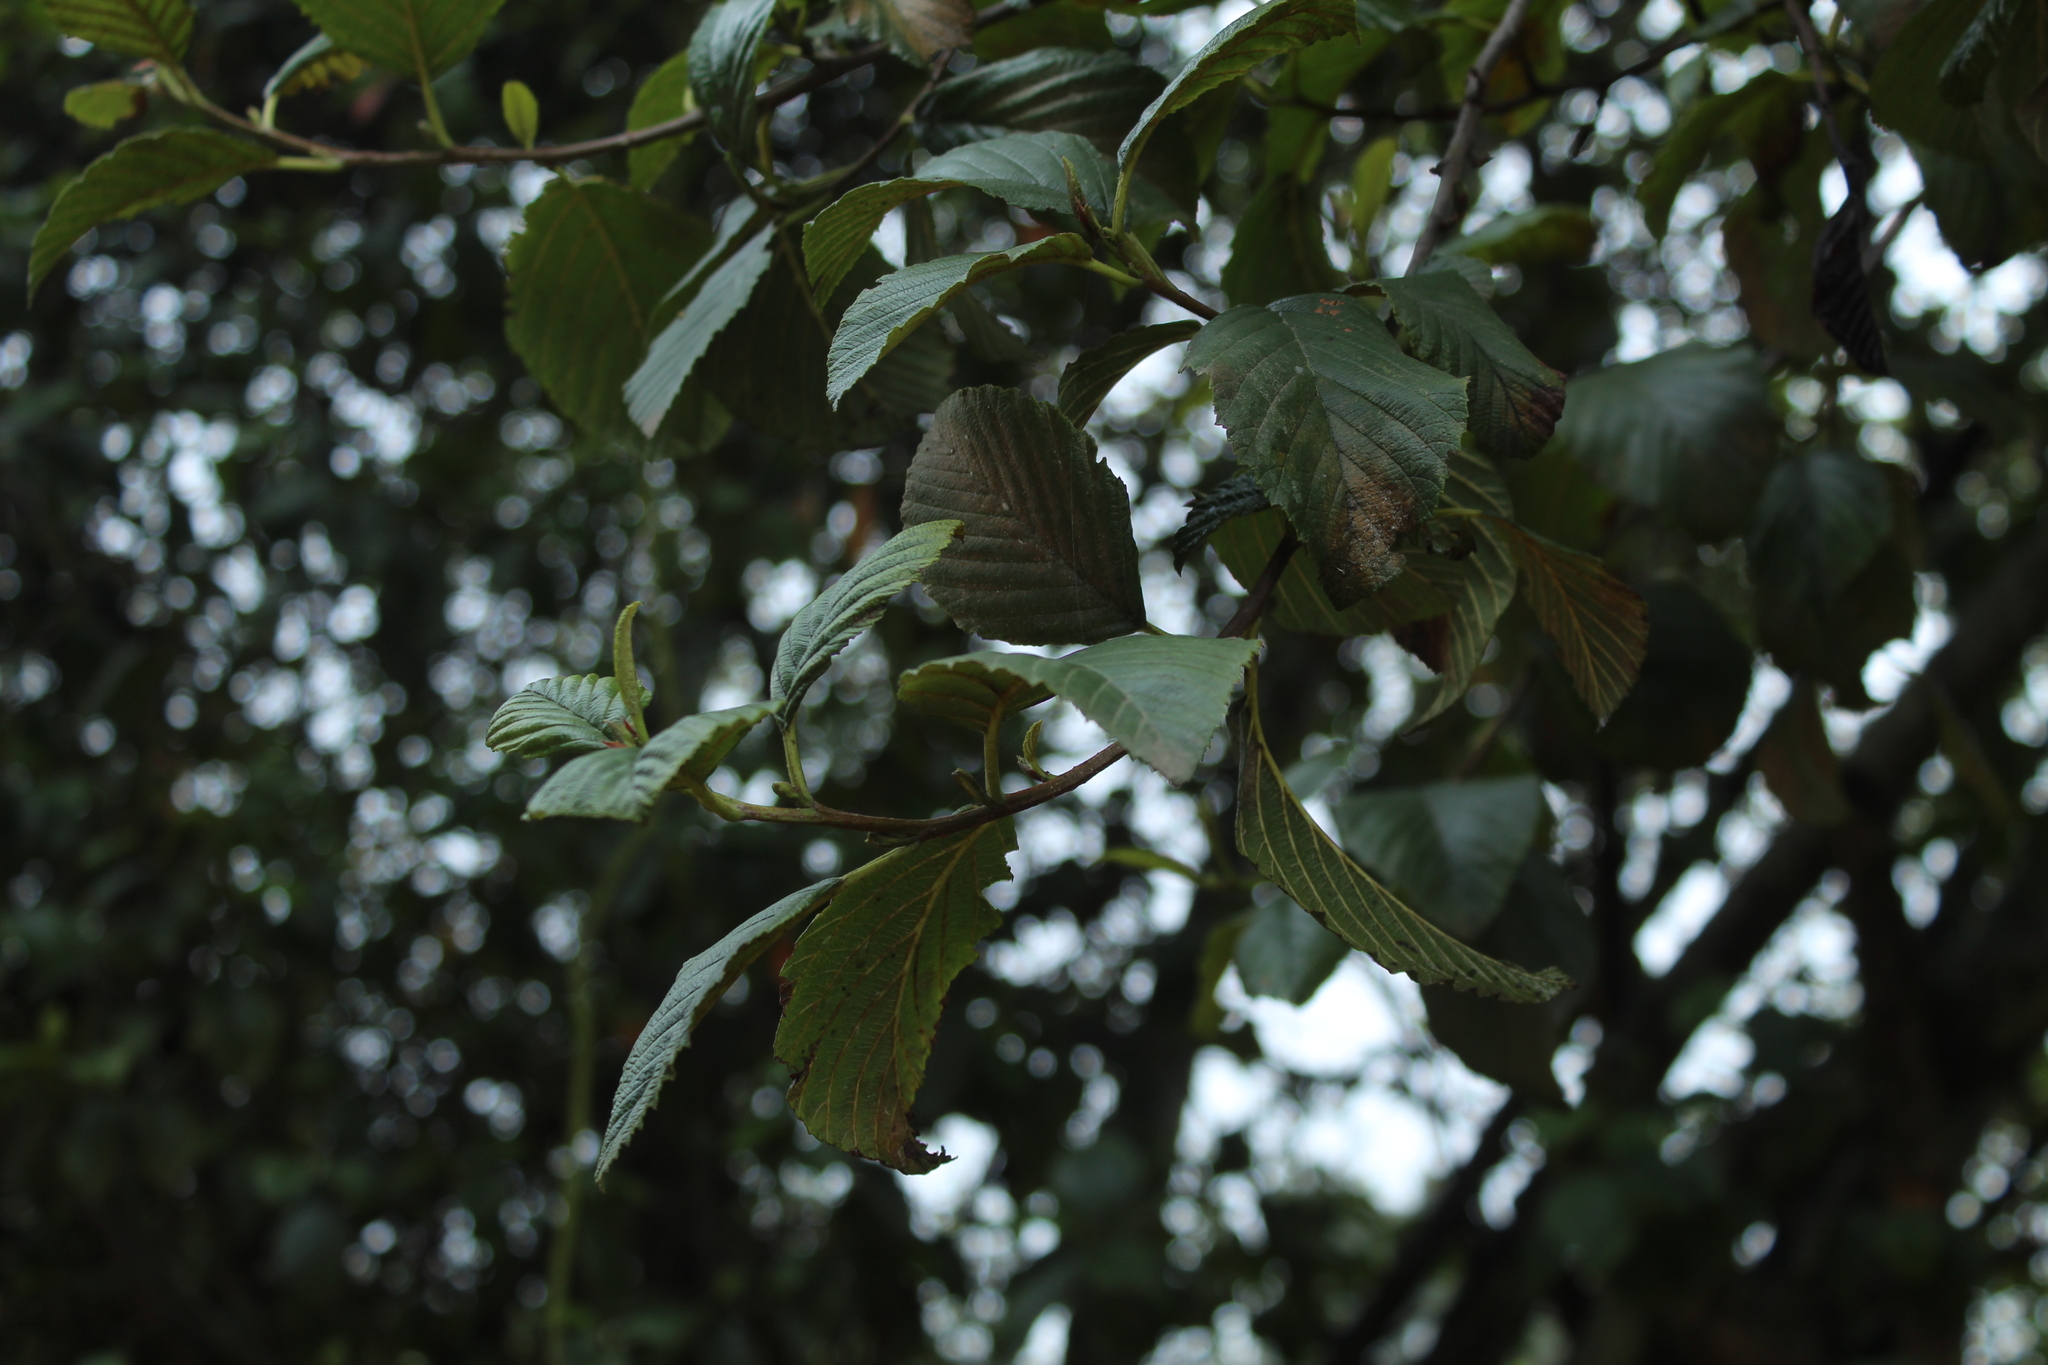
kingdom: Plantae
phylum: Tracheophyta
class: Magnoliopsida
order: Fagales
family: Betulaceae
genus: Alnus
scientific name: Alnus acuminata
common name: Alder
